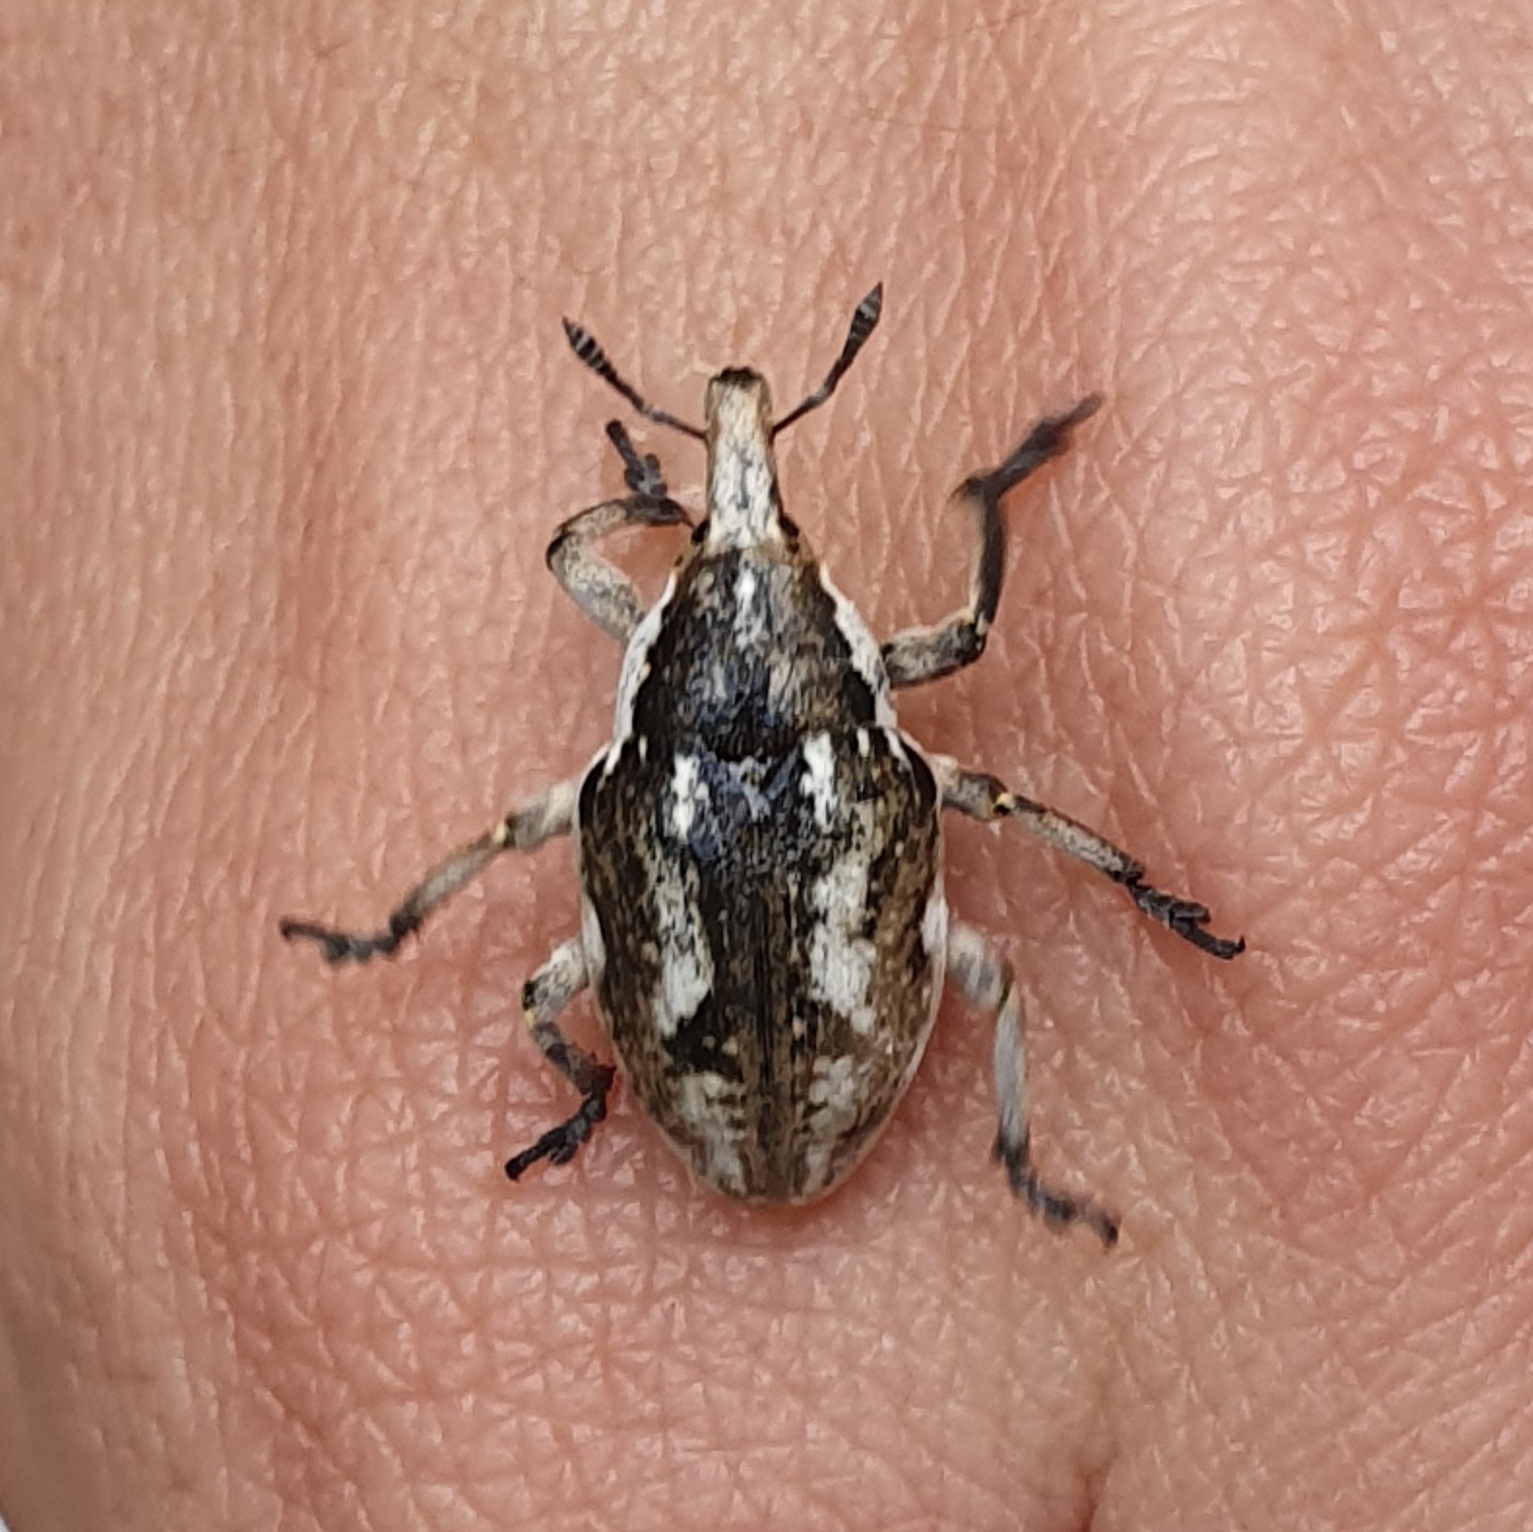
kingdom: Animalia
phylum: Arthropoda
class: Insecta
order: Coleoptera
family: Curculionidae
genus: Larinus
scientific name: Larinus onopordi
